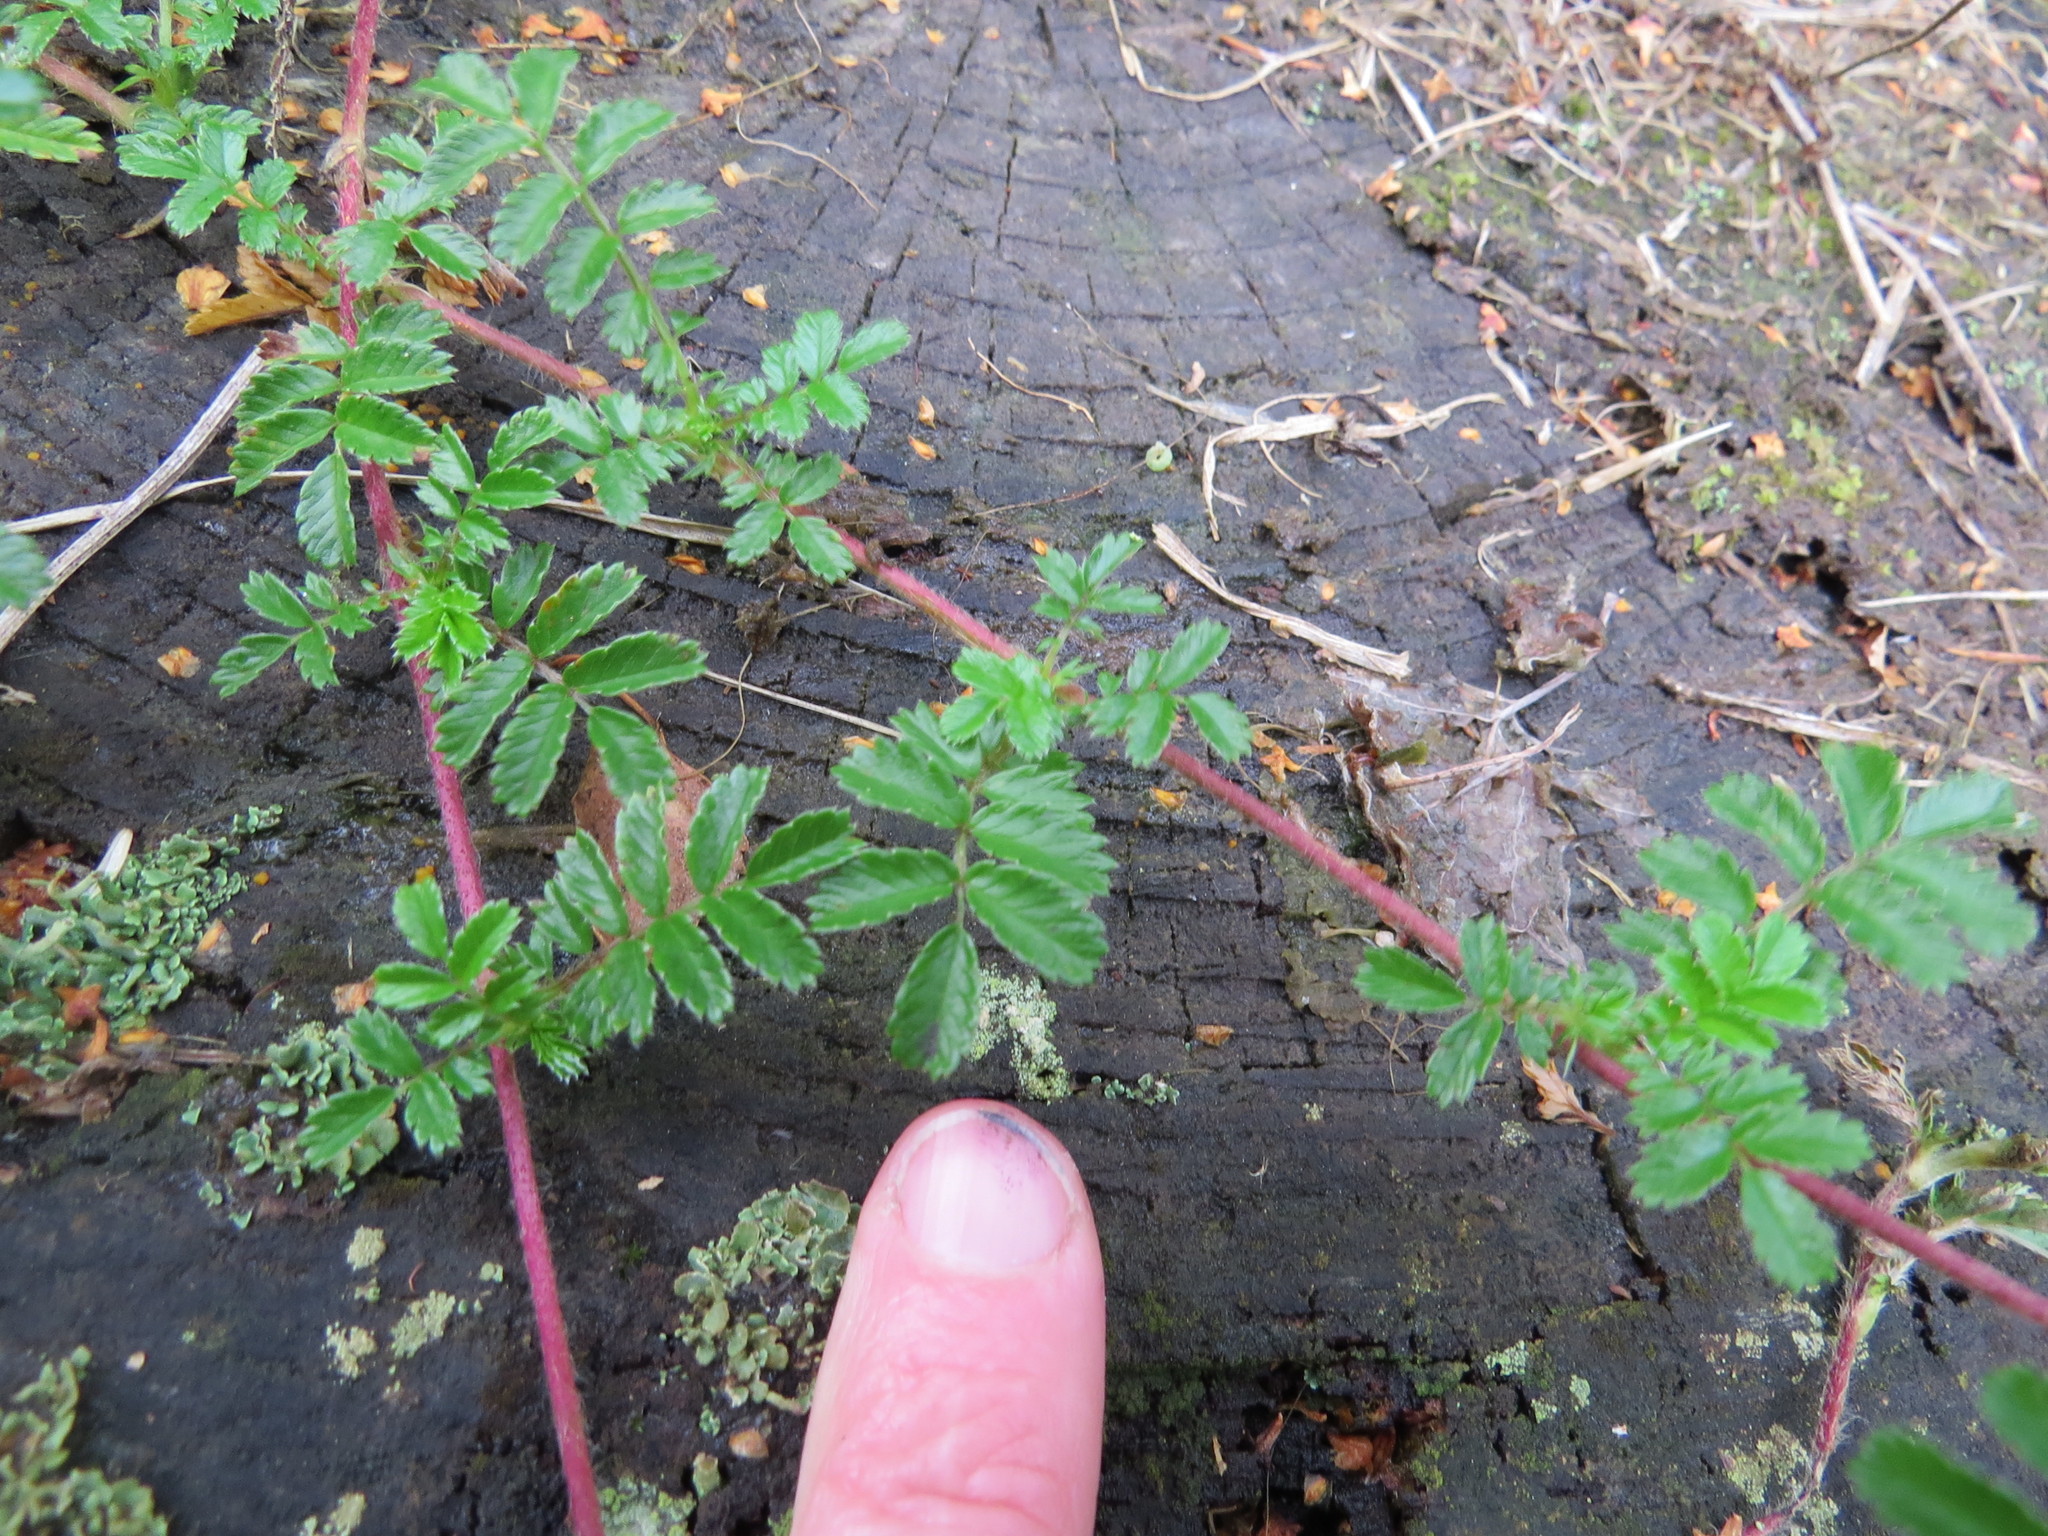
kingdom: Plantae
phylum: Tracheophyta
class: Magnoliopsida
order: Rosales
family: Rosaceae
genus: Acaena
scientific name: Acaena novae-zelandiae
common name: Pirri-pirri-bur
